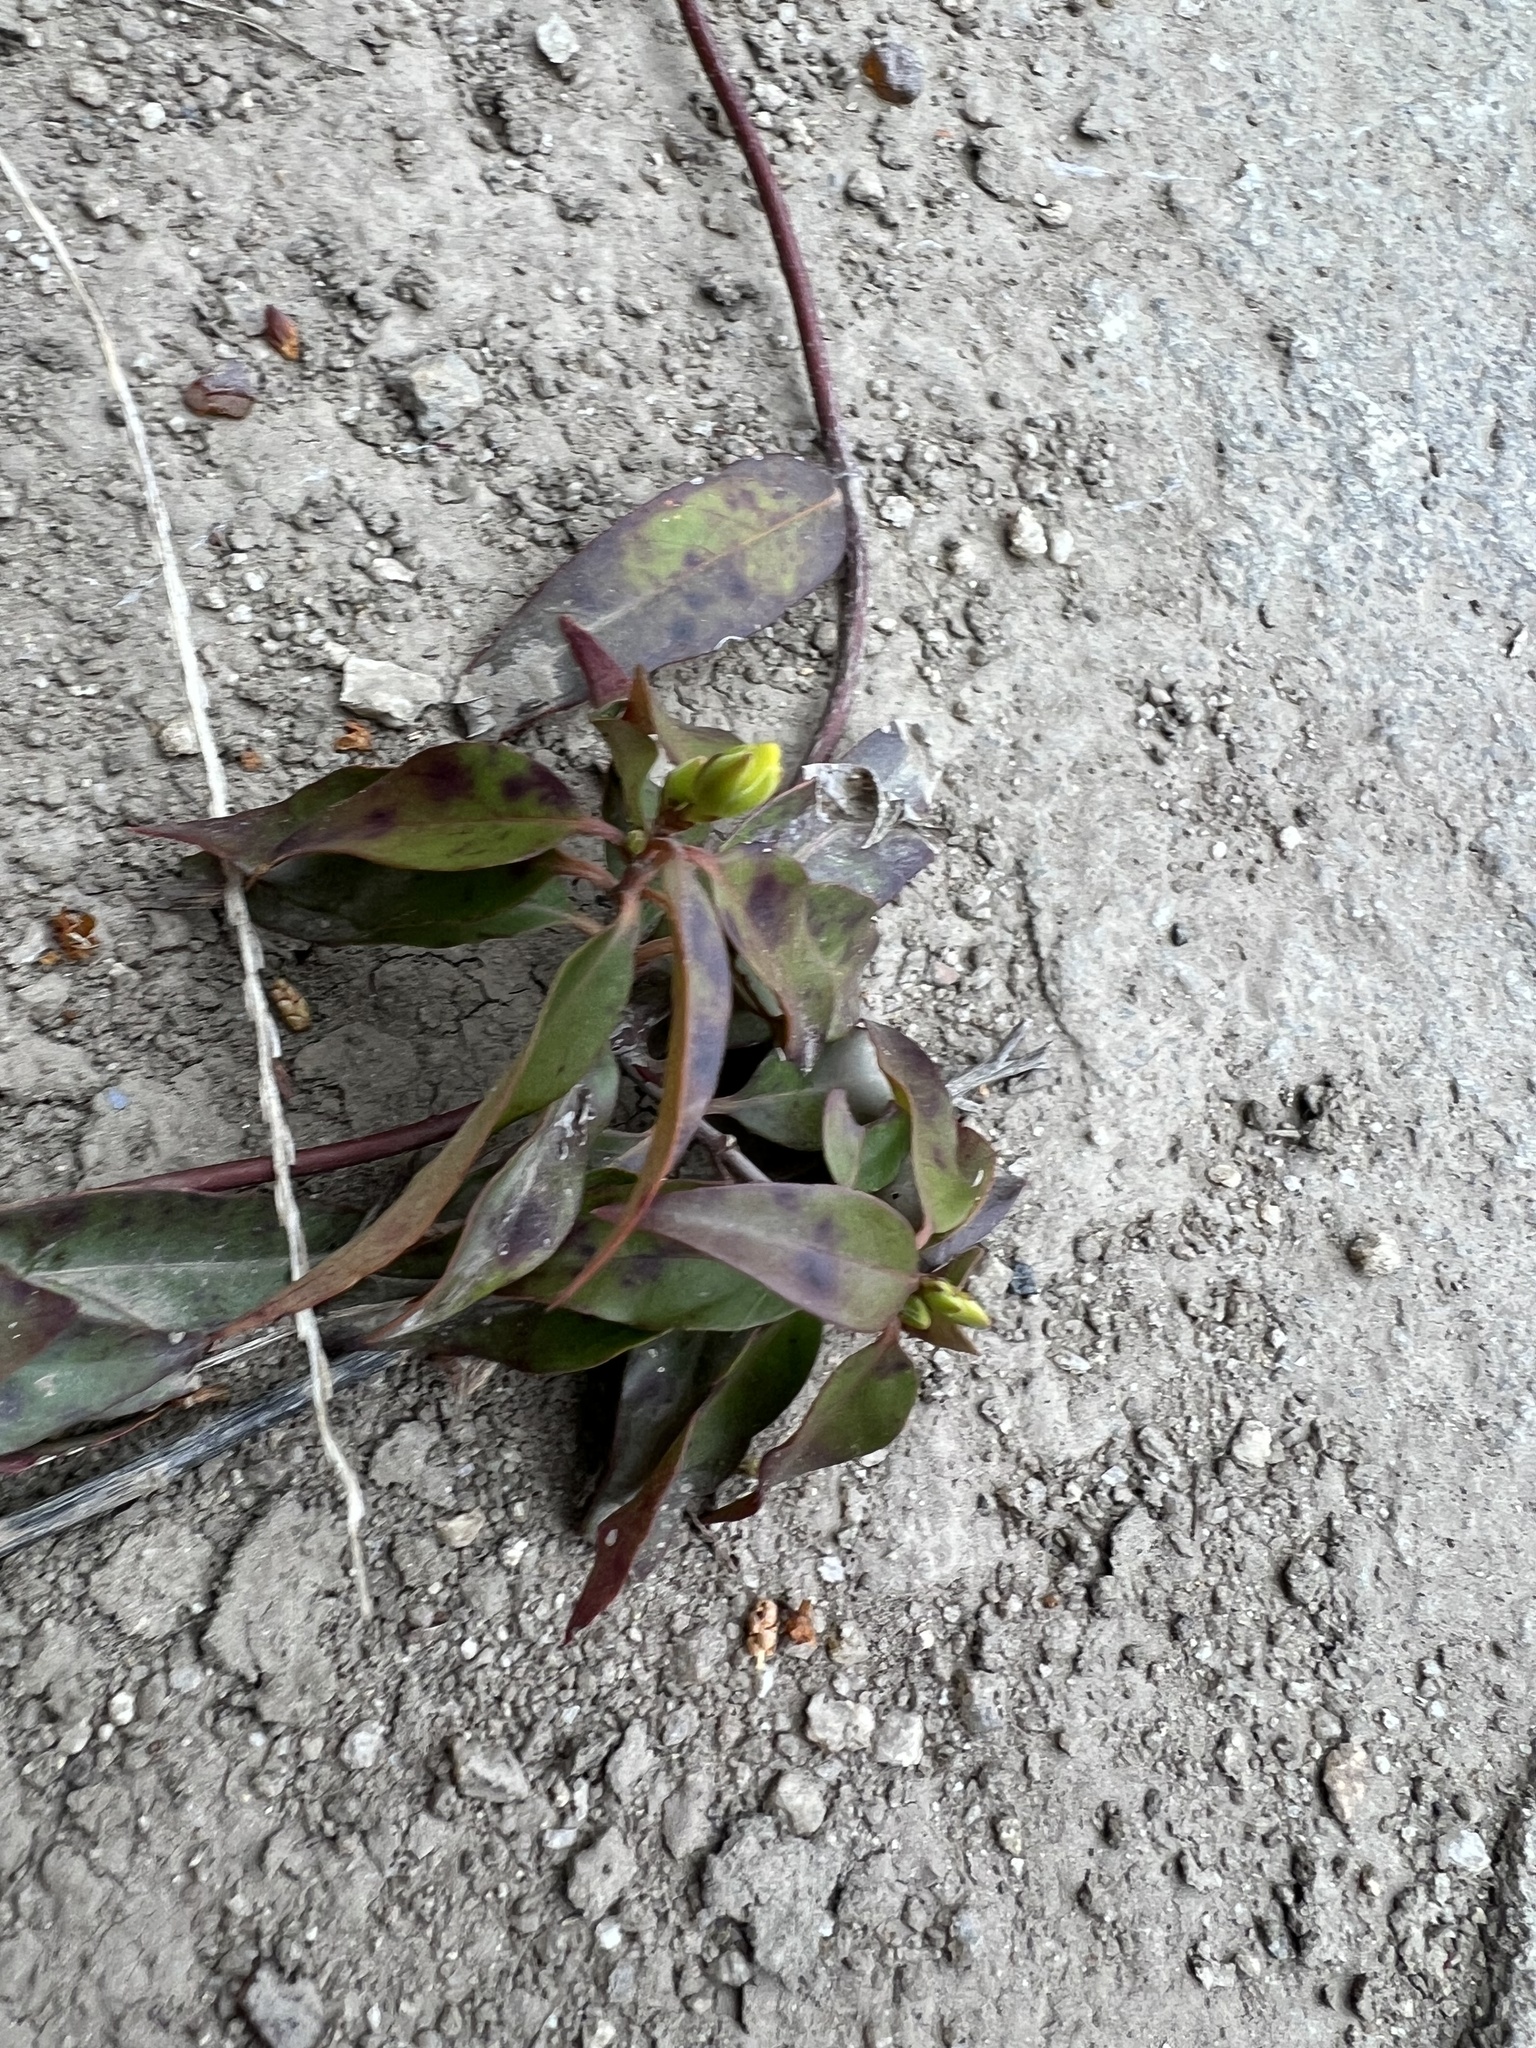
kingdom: Plantae
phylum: Tracheophyta
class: Magnoliopsida
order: Gentianales
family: Gelsemiaceae
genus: Gelsemium
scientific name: Gelsemium sempervirens
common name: Carolina-jasmine
